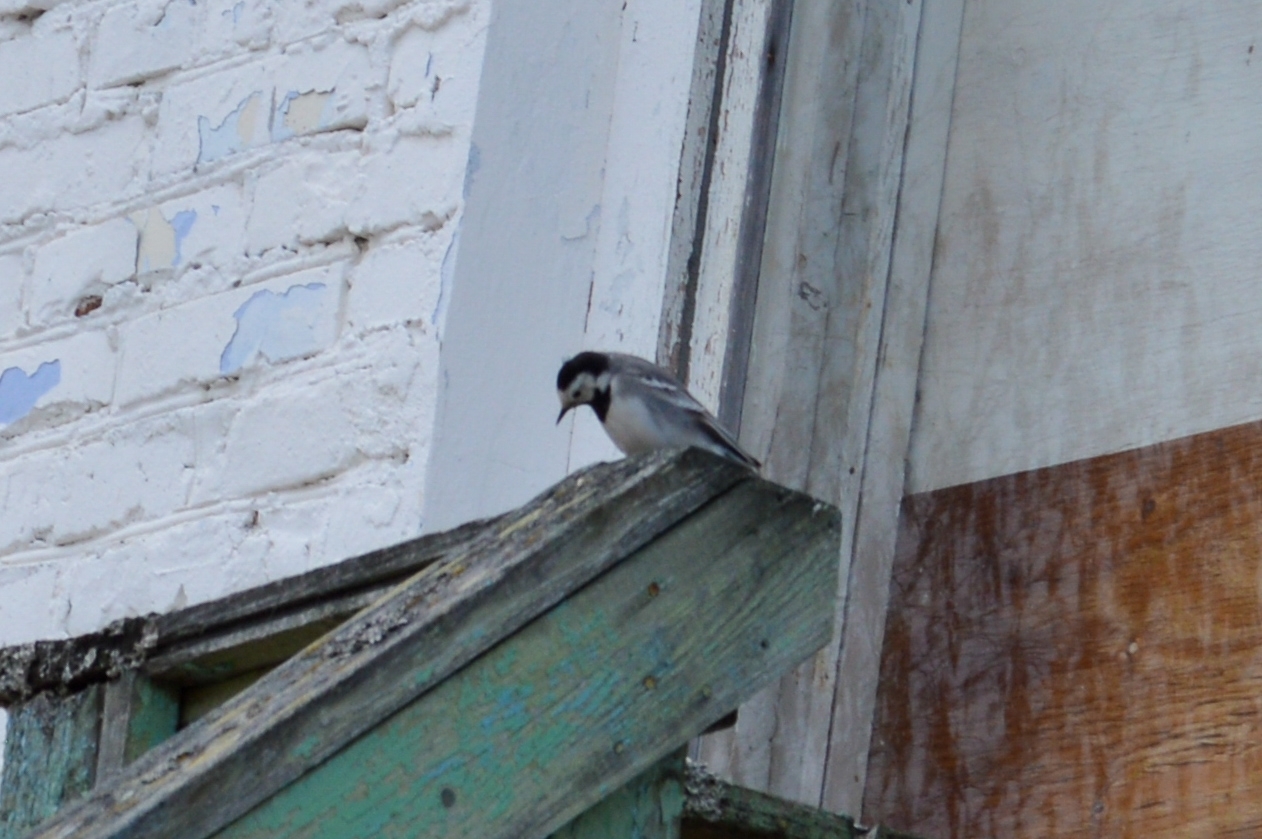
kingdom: Animalia
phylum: Chordata
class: Aves
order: Passeriformes
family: Motacillidae
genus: Motacilla
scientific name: Motacilla alba
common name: White wagtail
